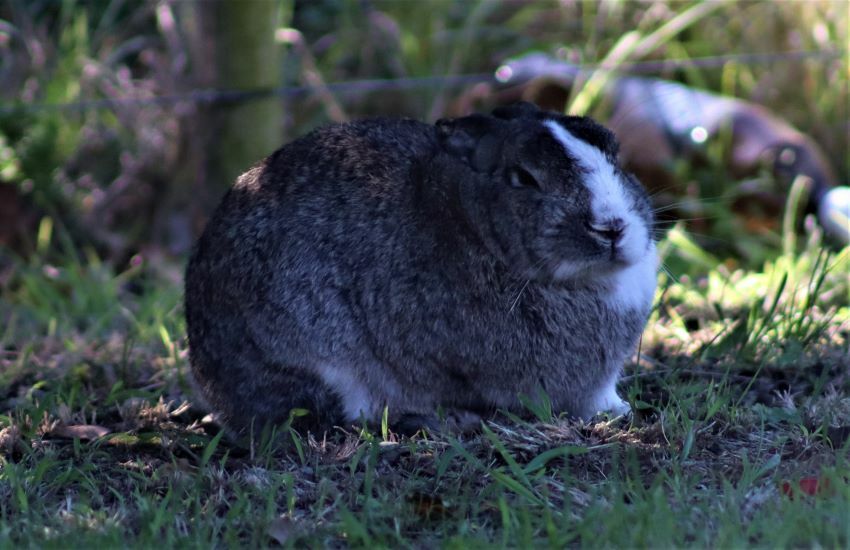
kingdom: Animalia
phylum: Chordata
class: Mammalia
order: Lagomorpha
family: Leporidae
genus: Oryctolagus
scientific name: Oryctolagus cuniculus
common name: European rabbit
